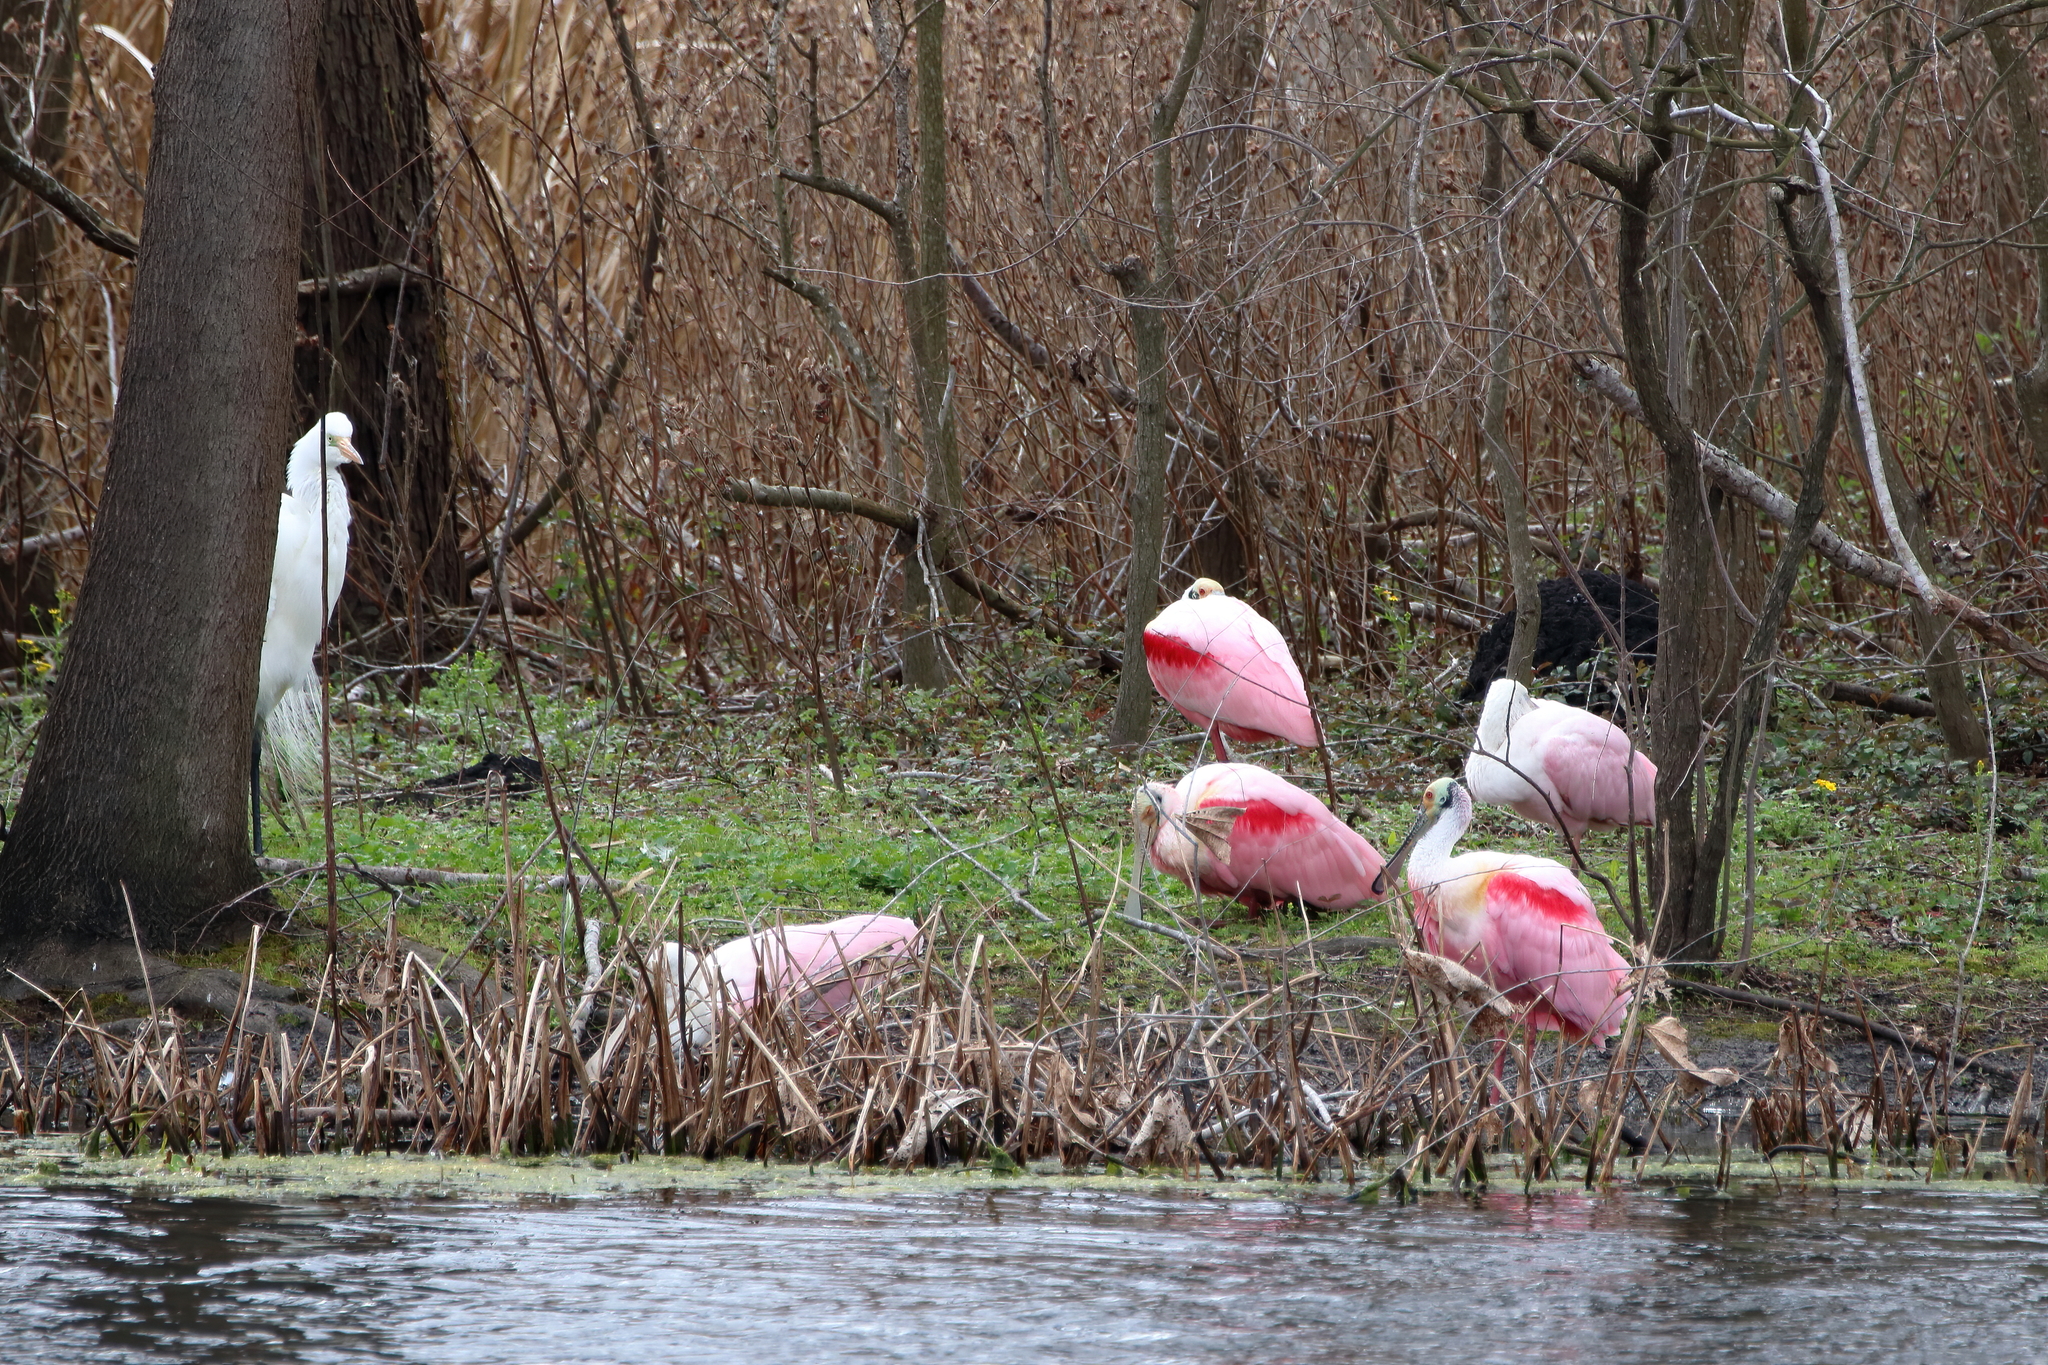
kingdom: Animalia
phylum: Chordata
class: Aves
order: Pelecaniformes
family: Threskiornithidae
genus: Platalea
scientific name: Platalea ajaja
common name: Roseate spoonbill
